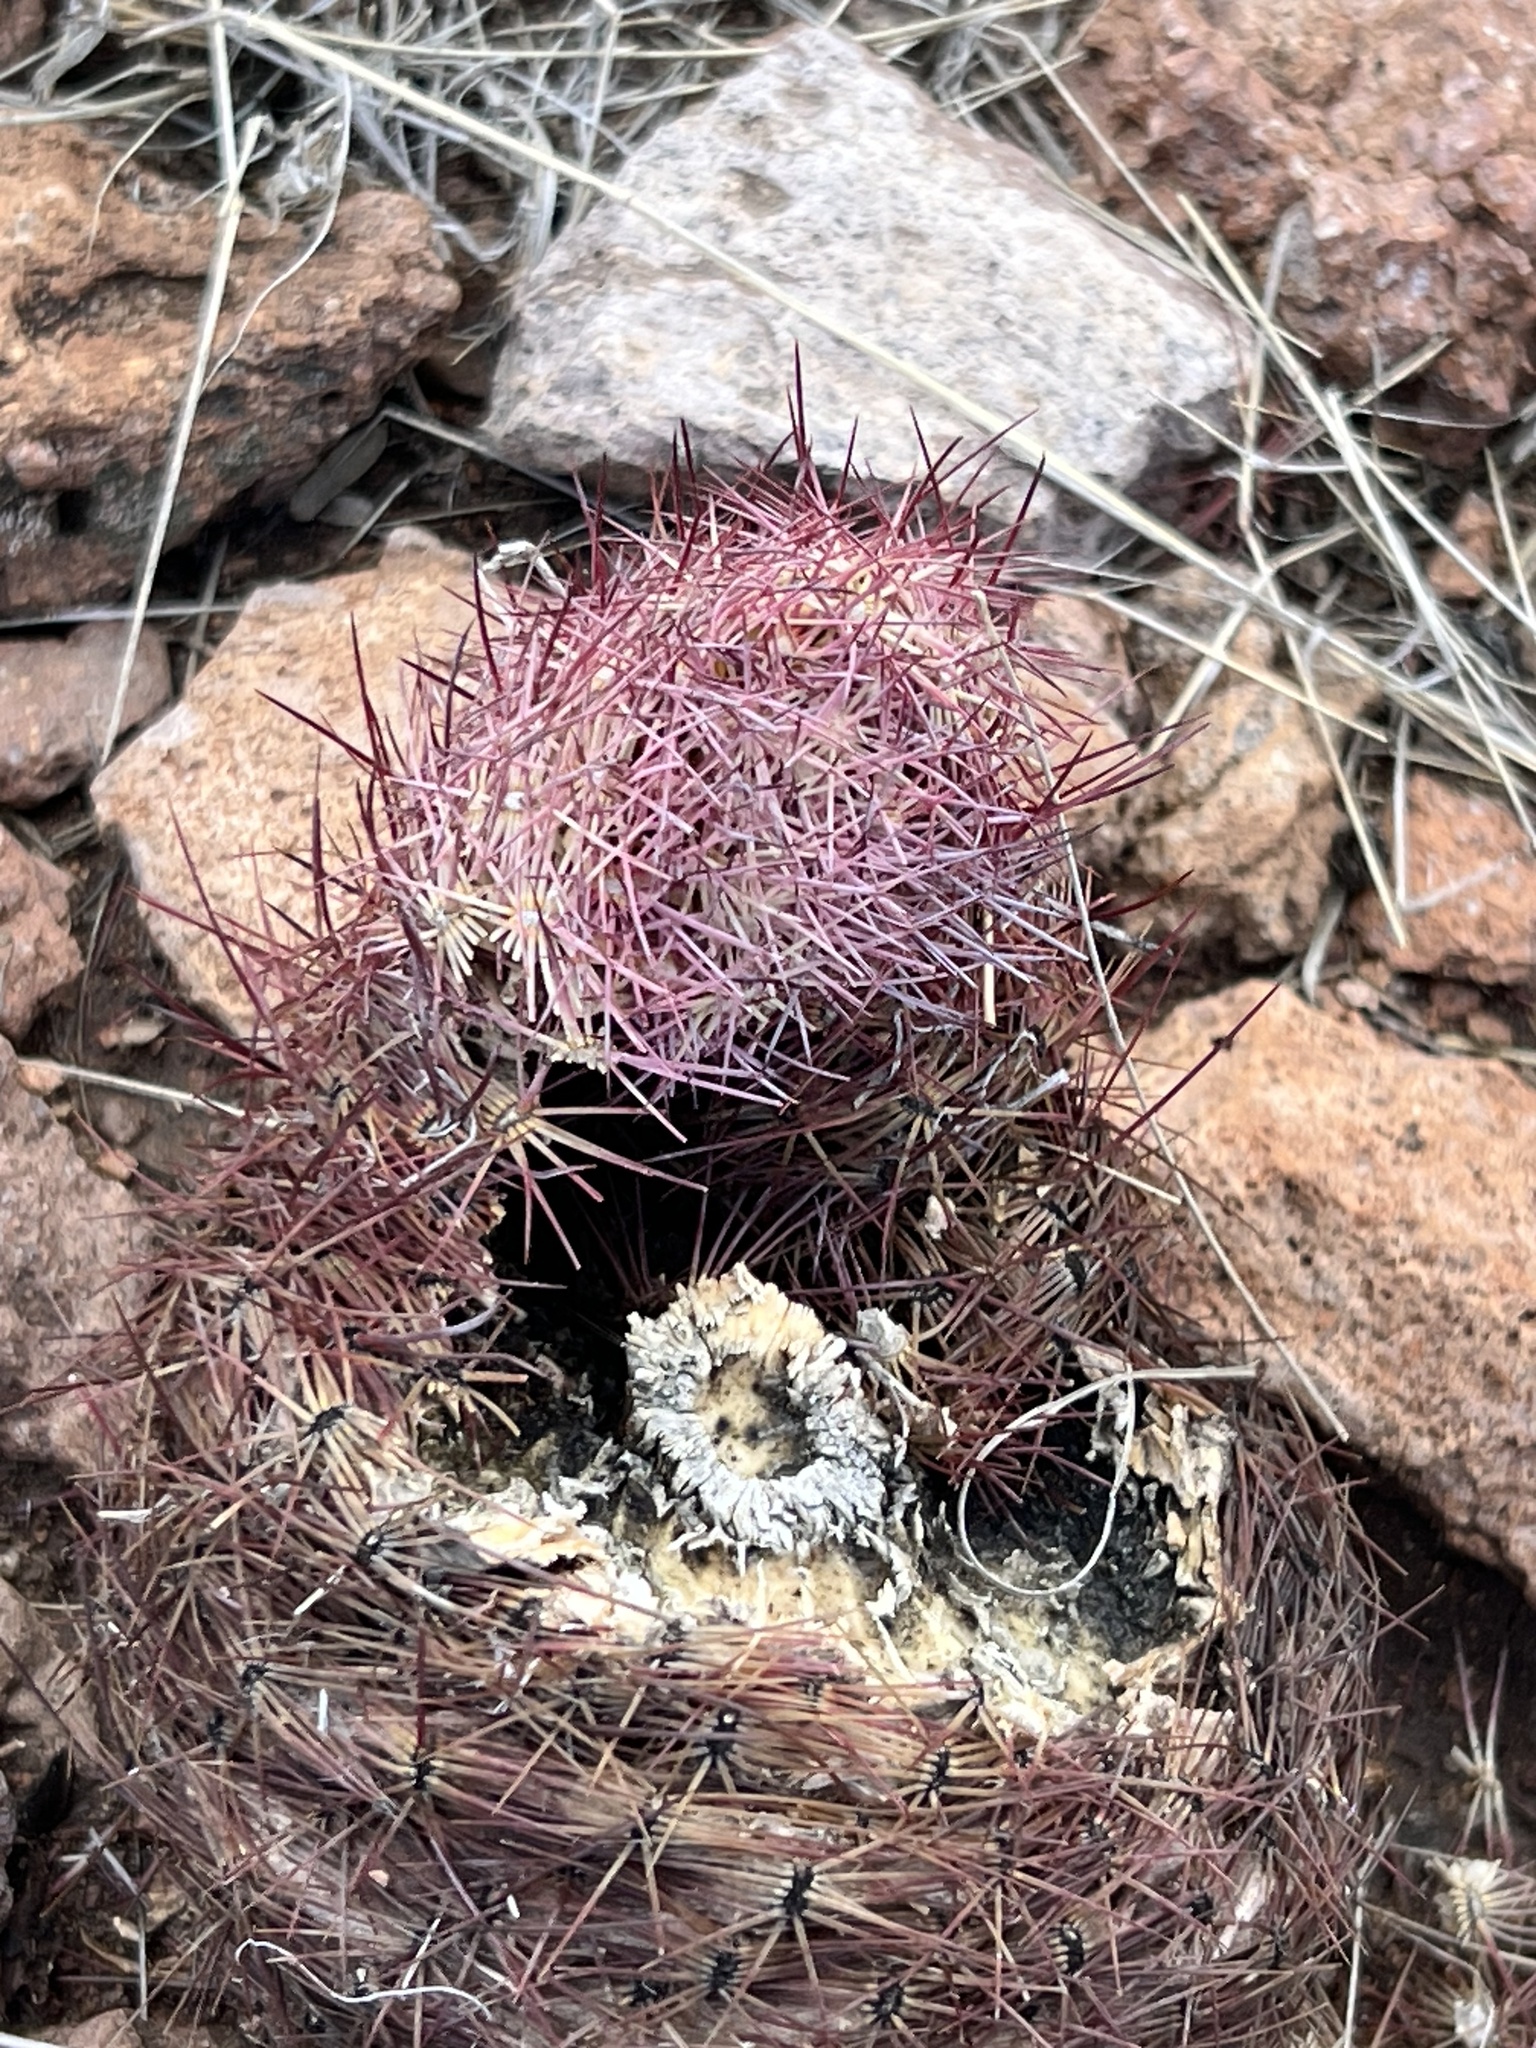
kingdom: Plantae
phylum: Tracheophyta
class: Magnoliopsida
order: Caryophyllales
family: Cactaceae
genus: Sclerocactus
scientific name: Sclerocactus johnsonii
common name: Eight-spine fishhook cactus
